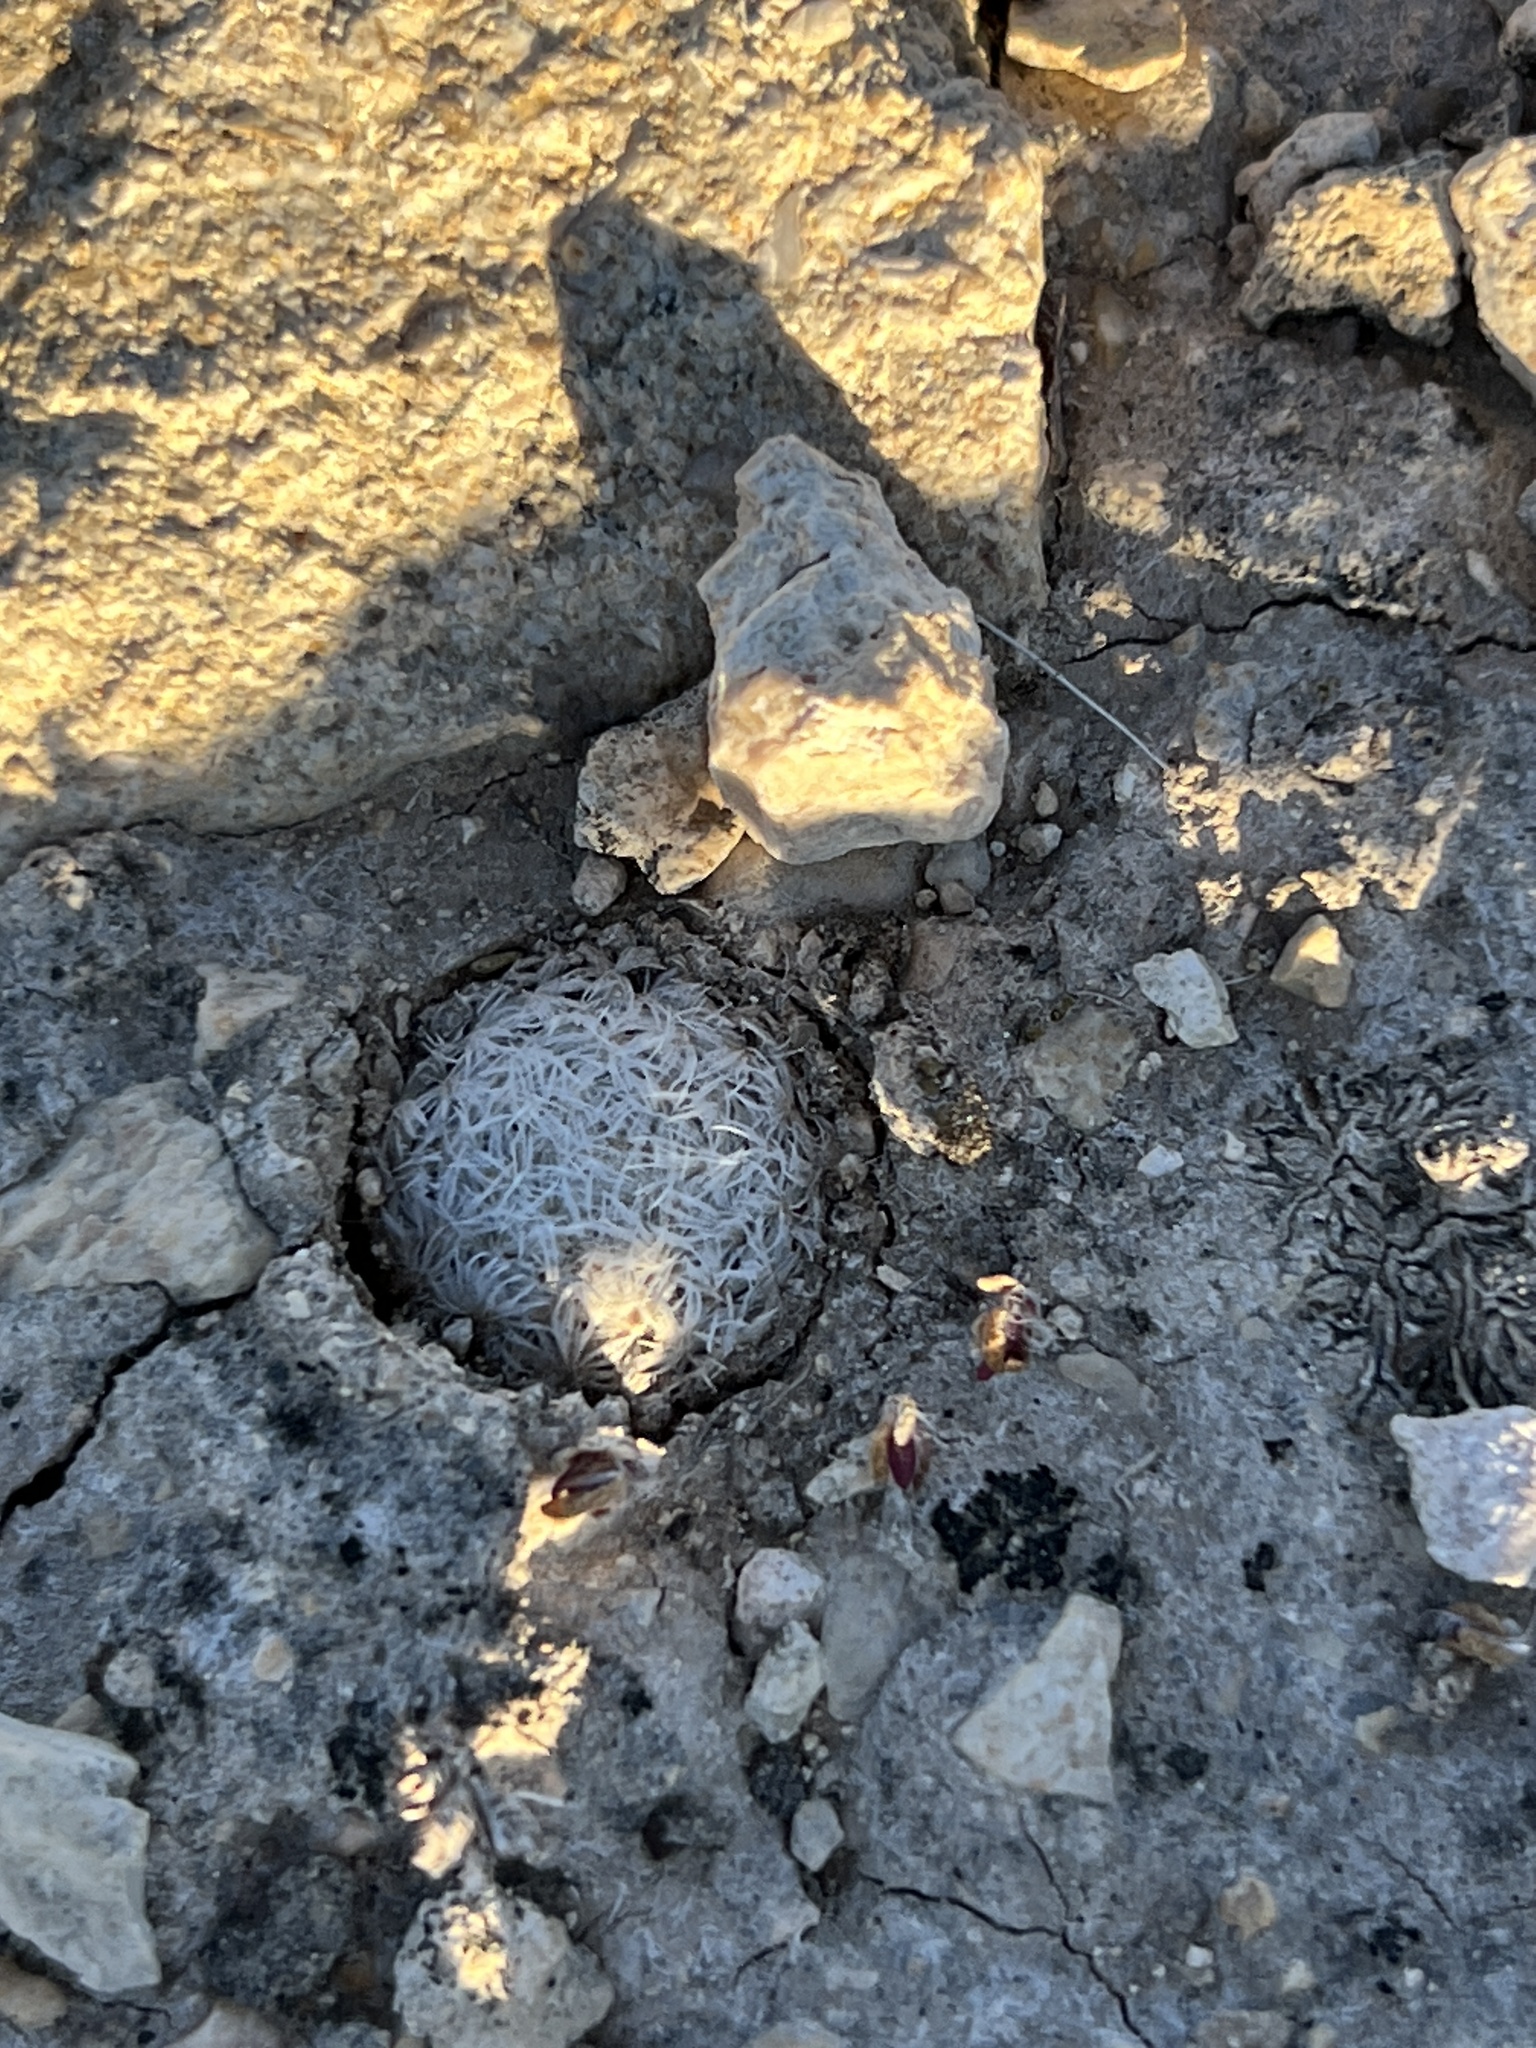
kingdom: Plantae
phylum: Tracheophyta
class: Magnoliopsida
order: Caryophyllales
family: Cactaceae
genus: Mammillaria
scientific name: Mammillaria lasiacantha
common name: Lace-spine nipple cactus
